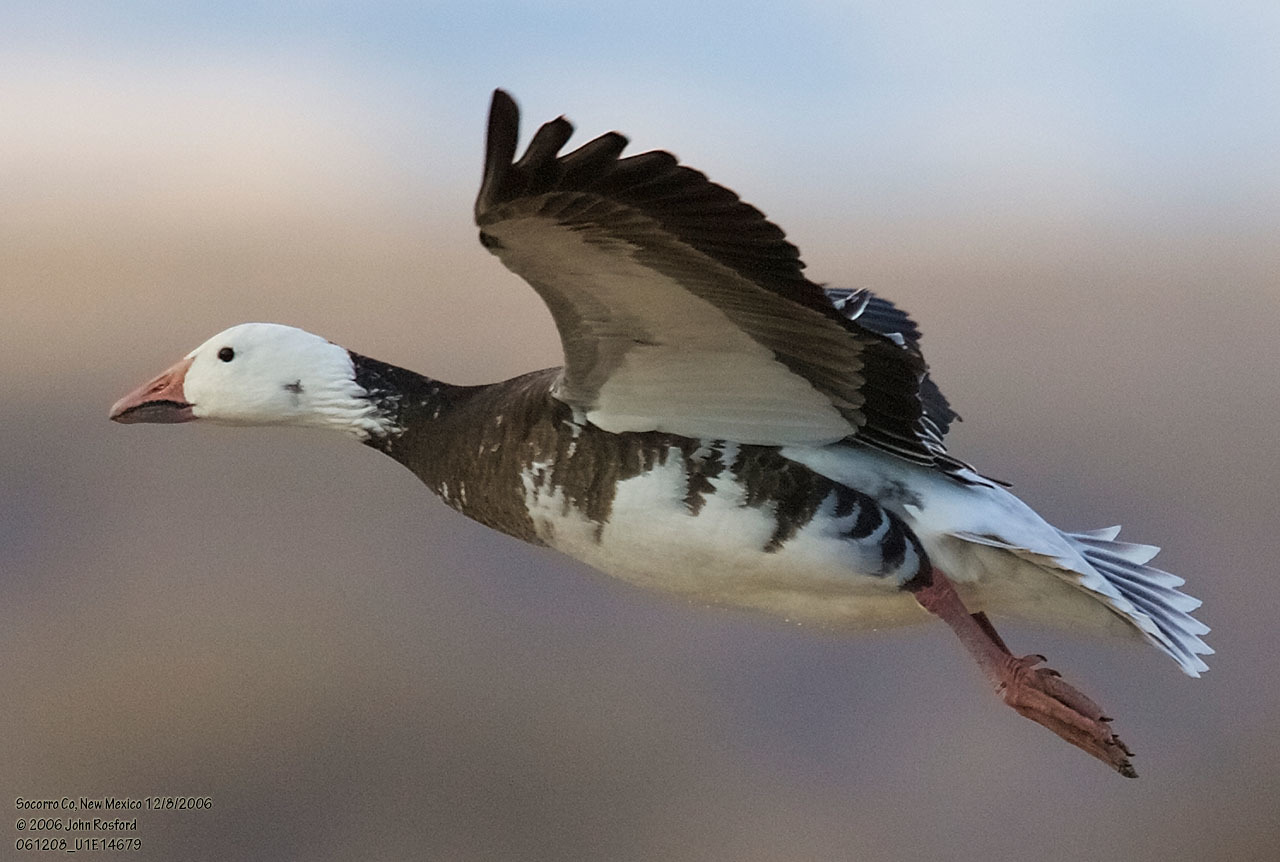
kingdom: Animalia
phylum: Chordata
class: Aves
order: Anseriformes
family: Anatidae
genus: Anser
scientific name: Anser caerulescens
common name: Snow goose
